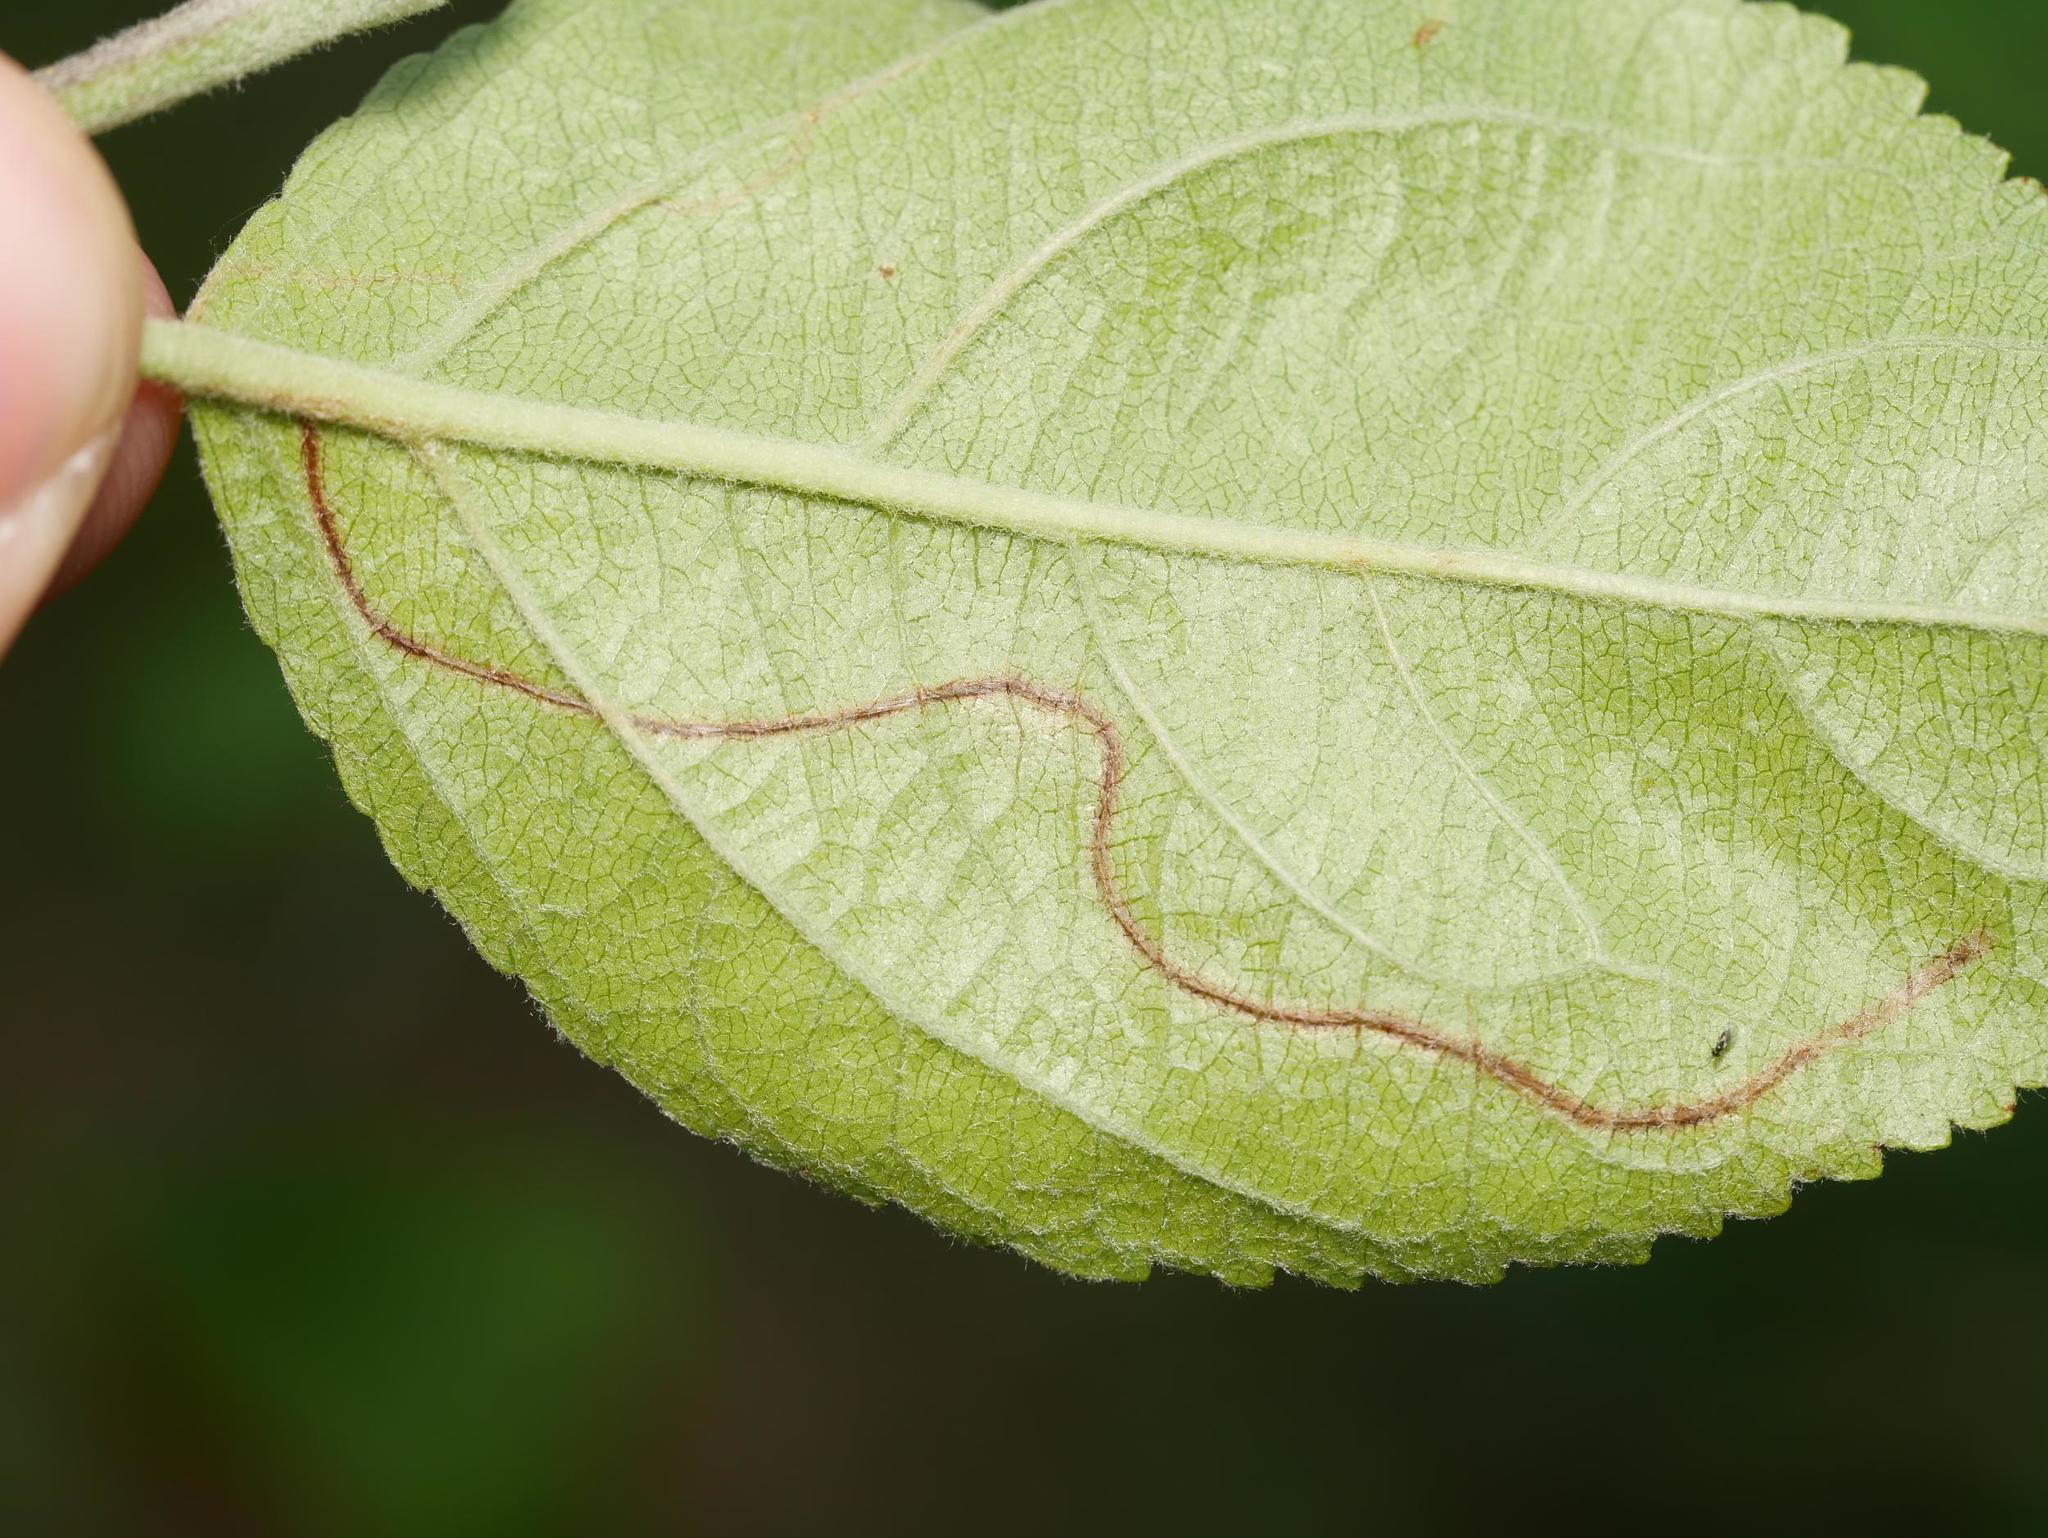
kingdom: Animalia
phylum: Arthropoda
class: Insecta
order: Lepidoptera
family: Lyonetiidae
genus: Lyonetia
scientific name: Lyonetia clerkella
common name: Apple leaf miner
